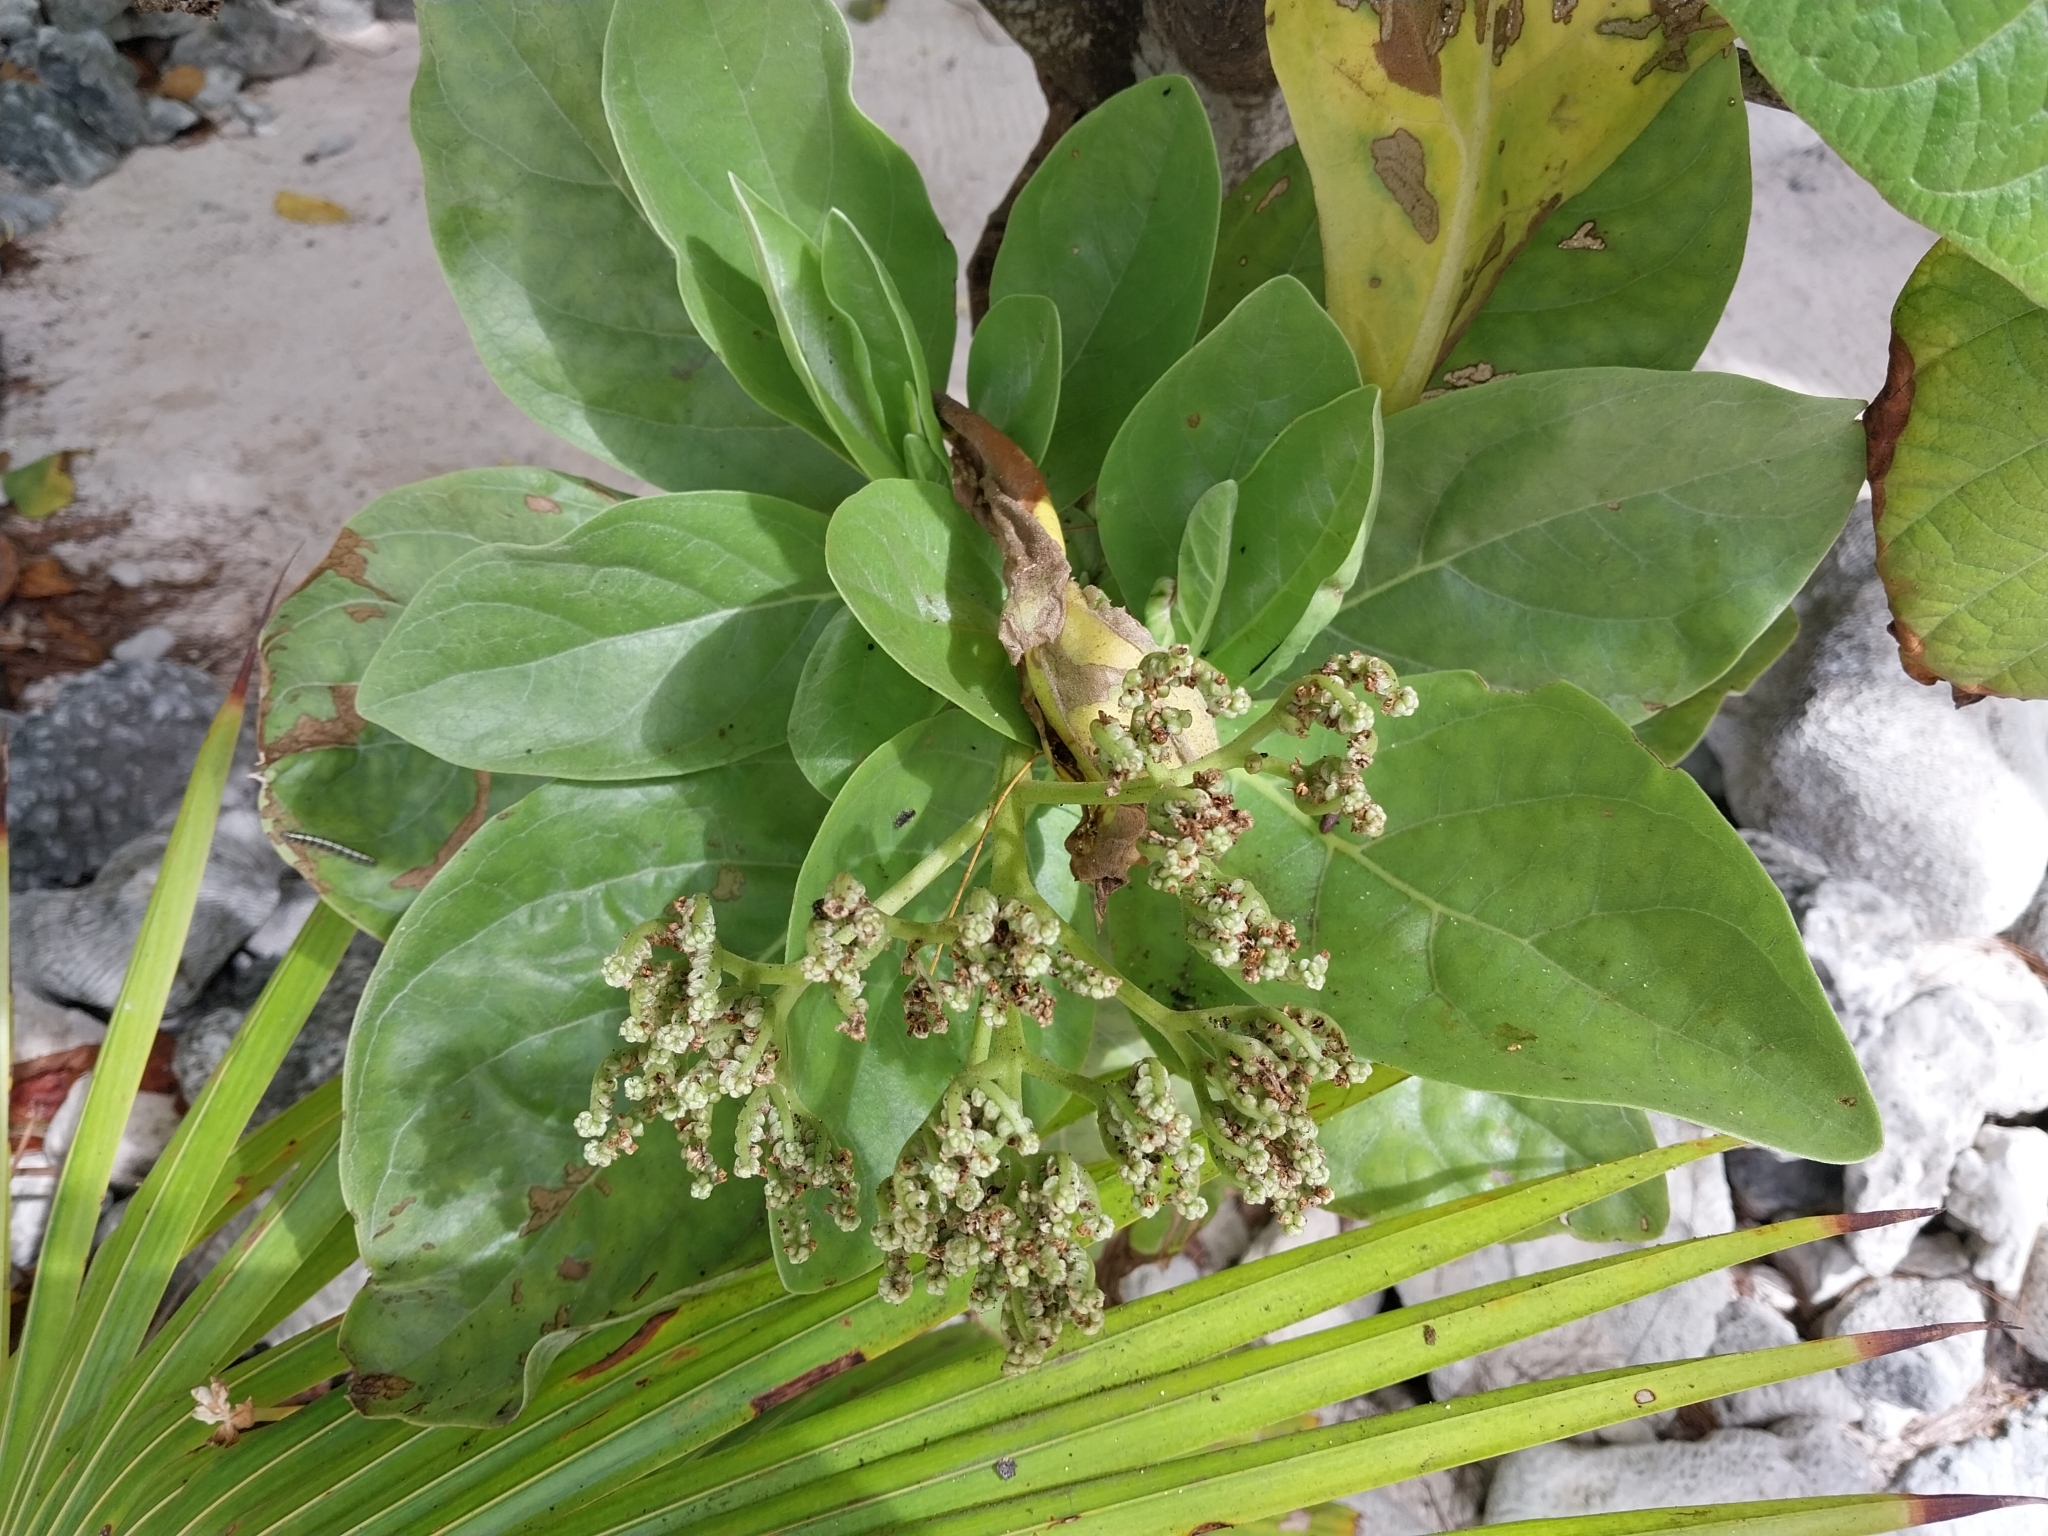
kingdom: Plantae
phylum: Tracheophyta
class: Magnoliopsida
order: Boraginales
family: Heliotropiaceae
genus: Heliotropium
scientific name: Heliotropium velutinum
